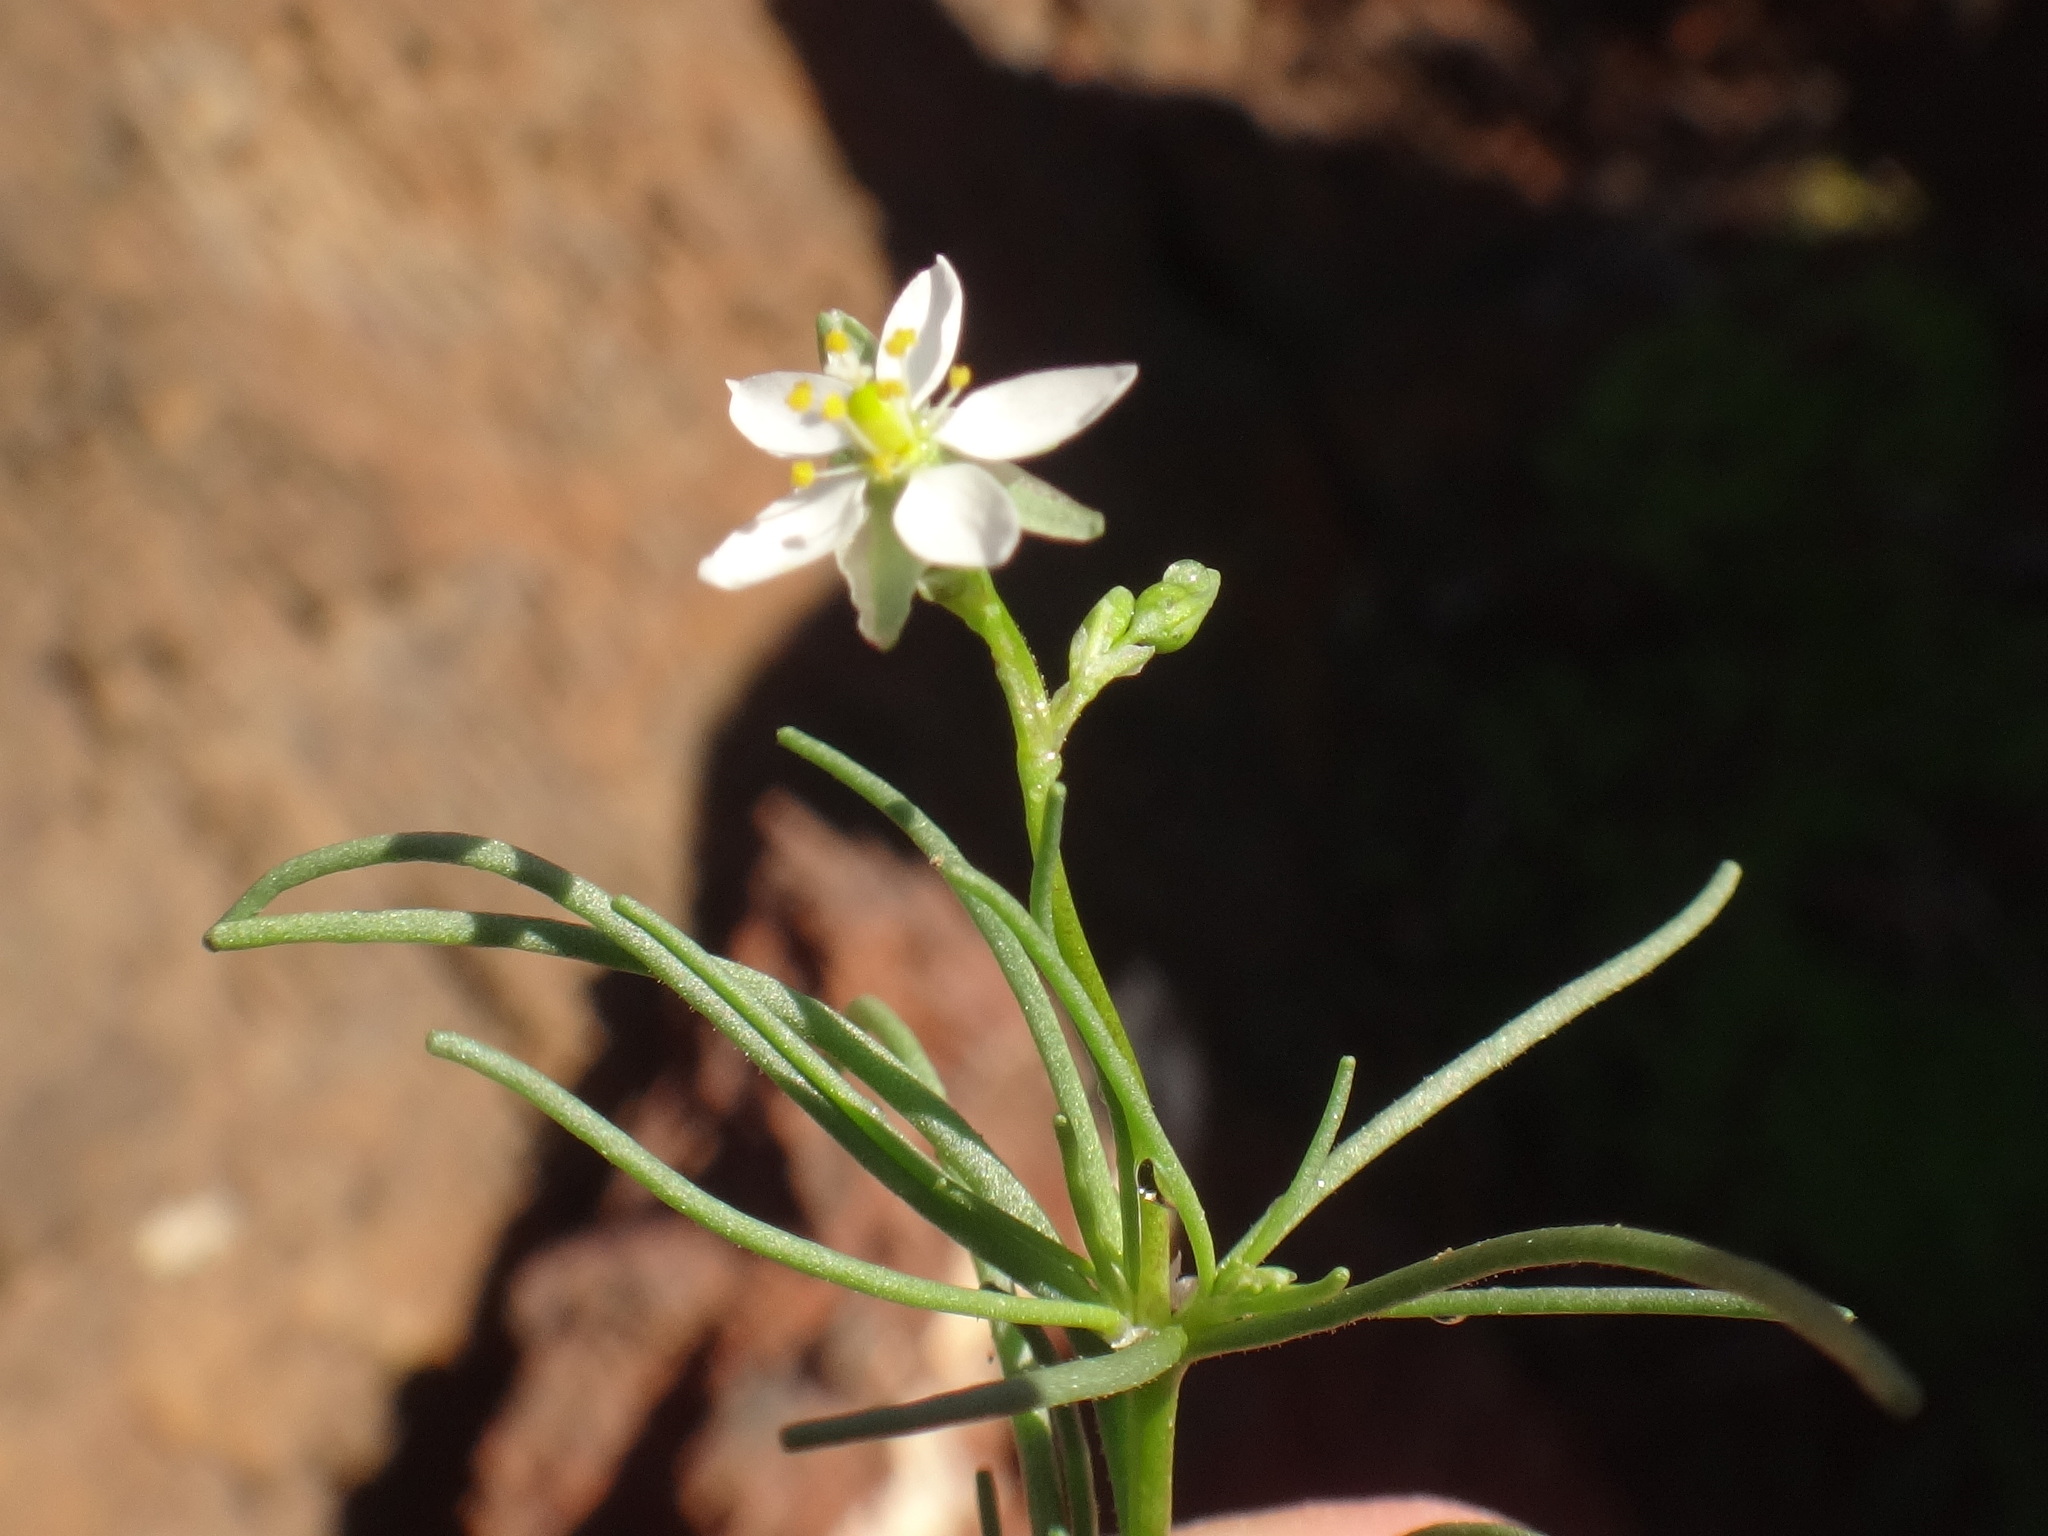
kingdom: Plantae
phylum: Tracheophyta
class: Magnoliopsida
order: Caryophyllales
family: Caryophyllaceae
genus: Spergularia
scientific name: Spergularia flaccida
